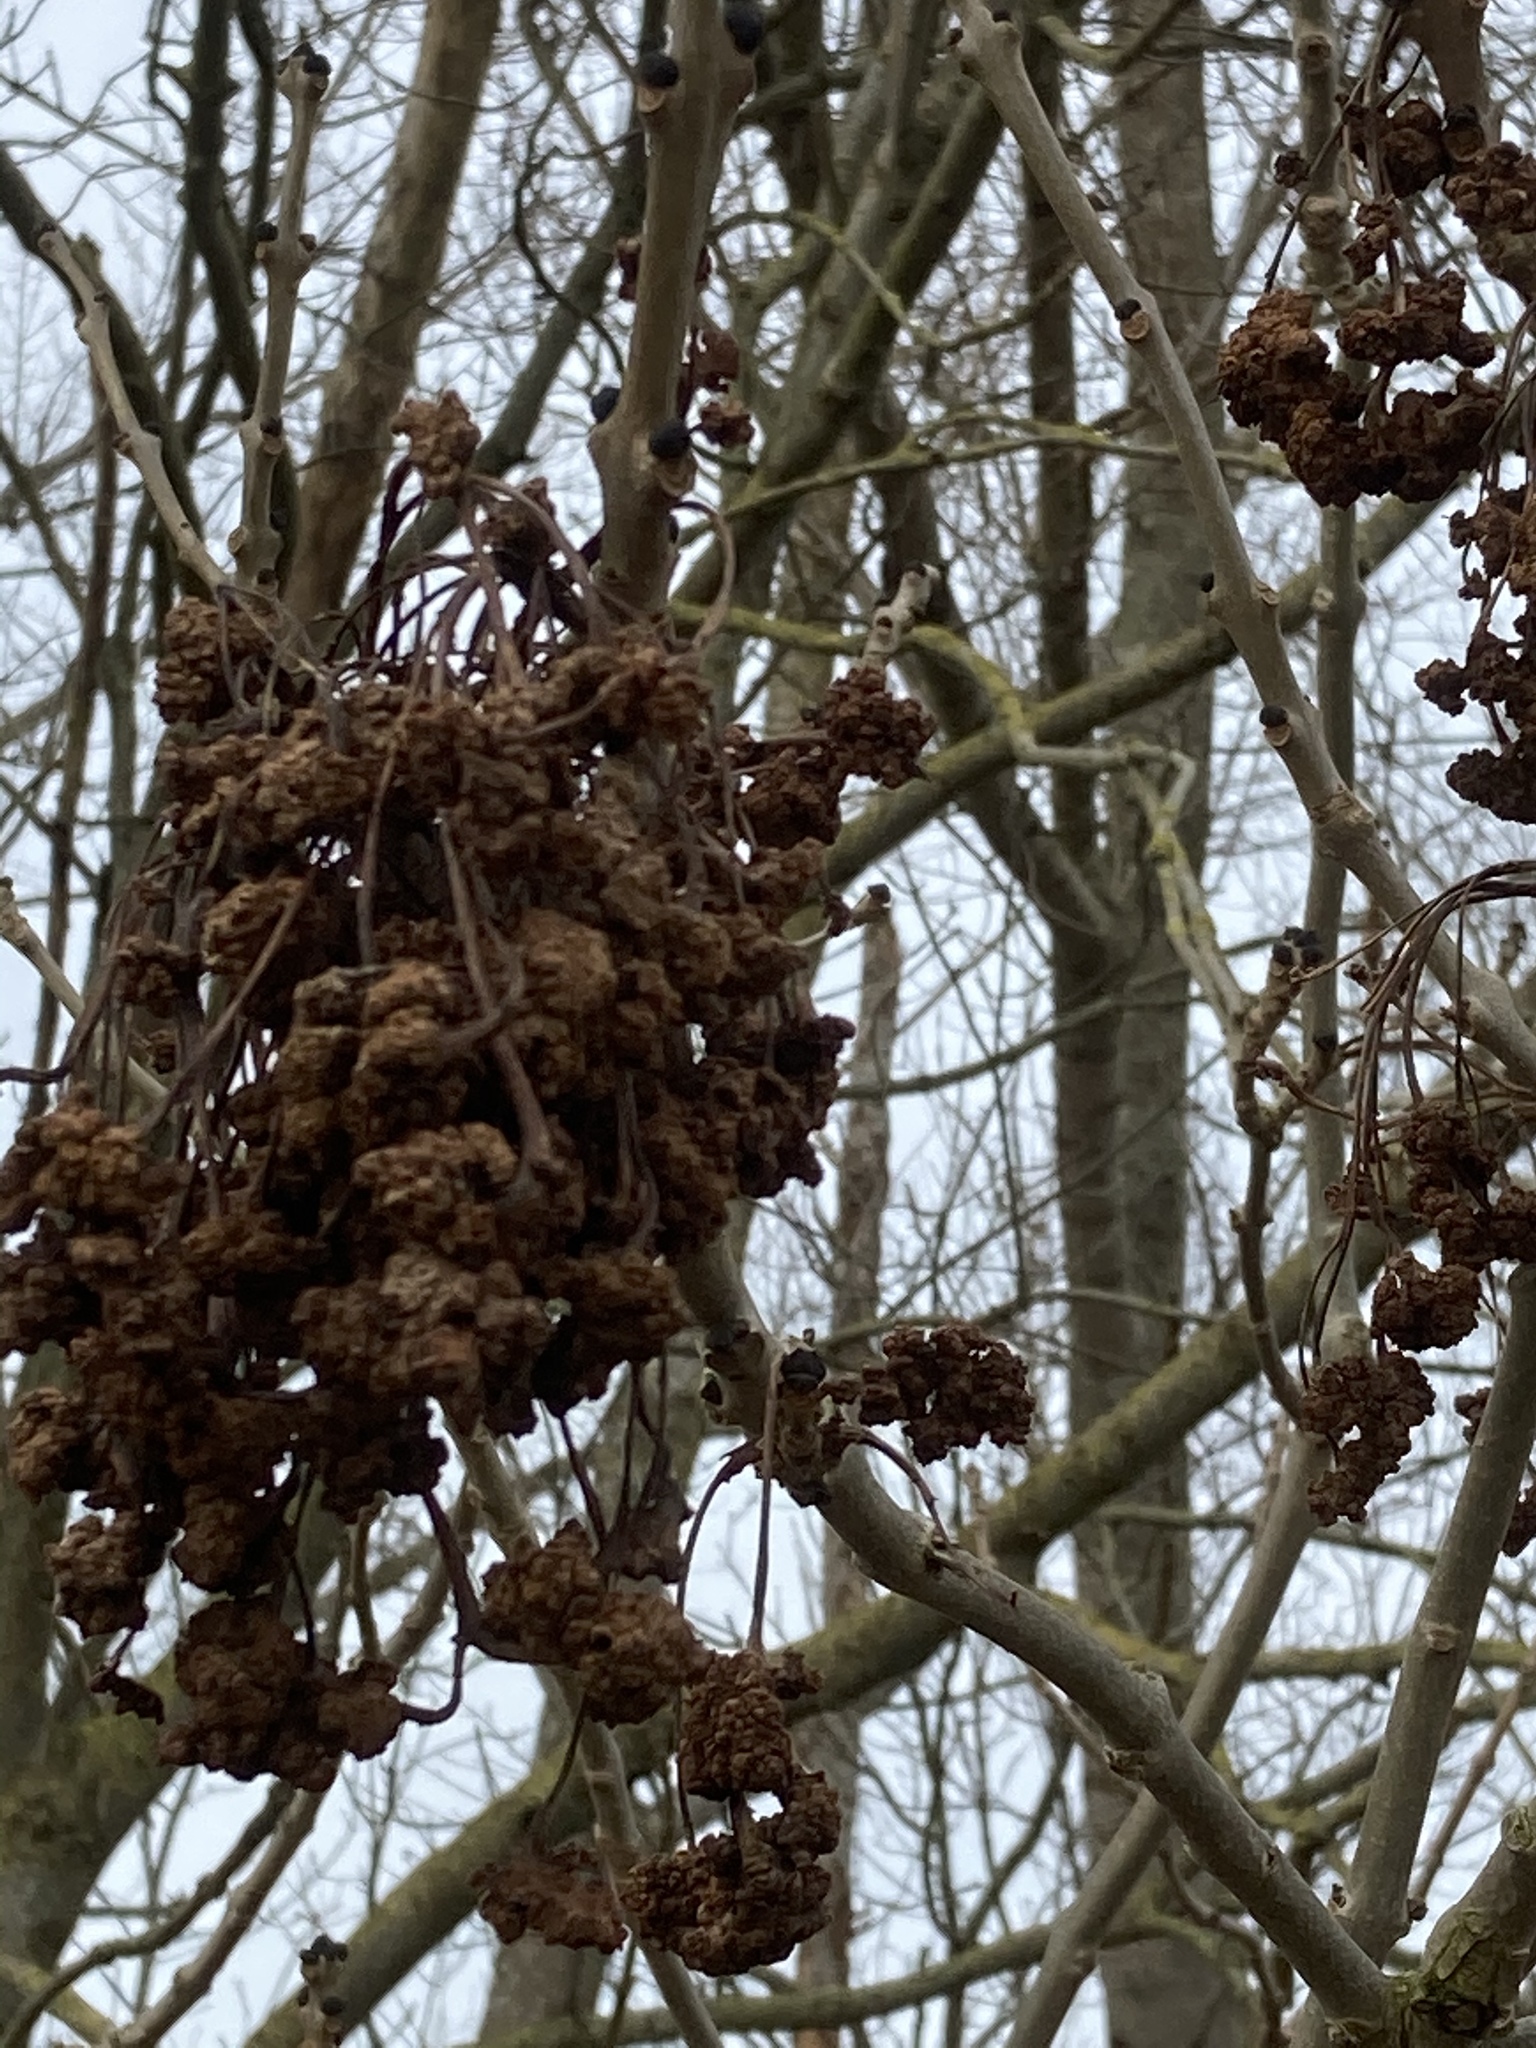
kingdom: Animalia
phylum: Arthropoda
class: Arachnida
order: Trombidiformes
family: Eriophyidae
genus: Aceria
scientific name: Aceria fraxinivora
